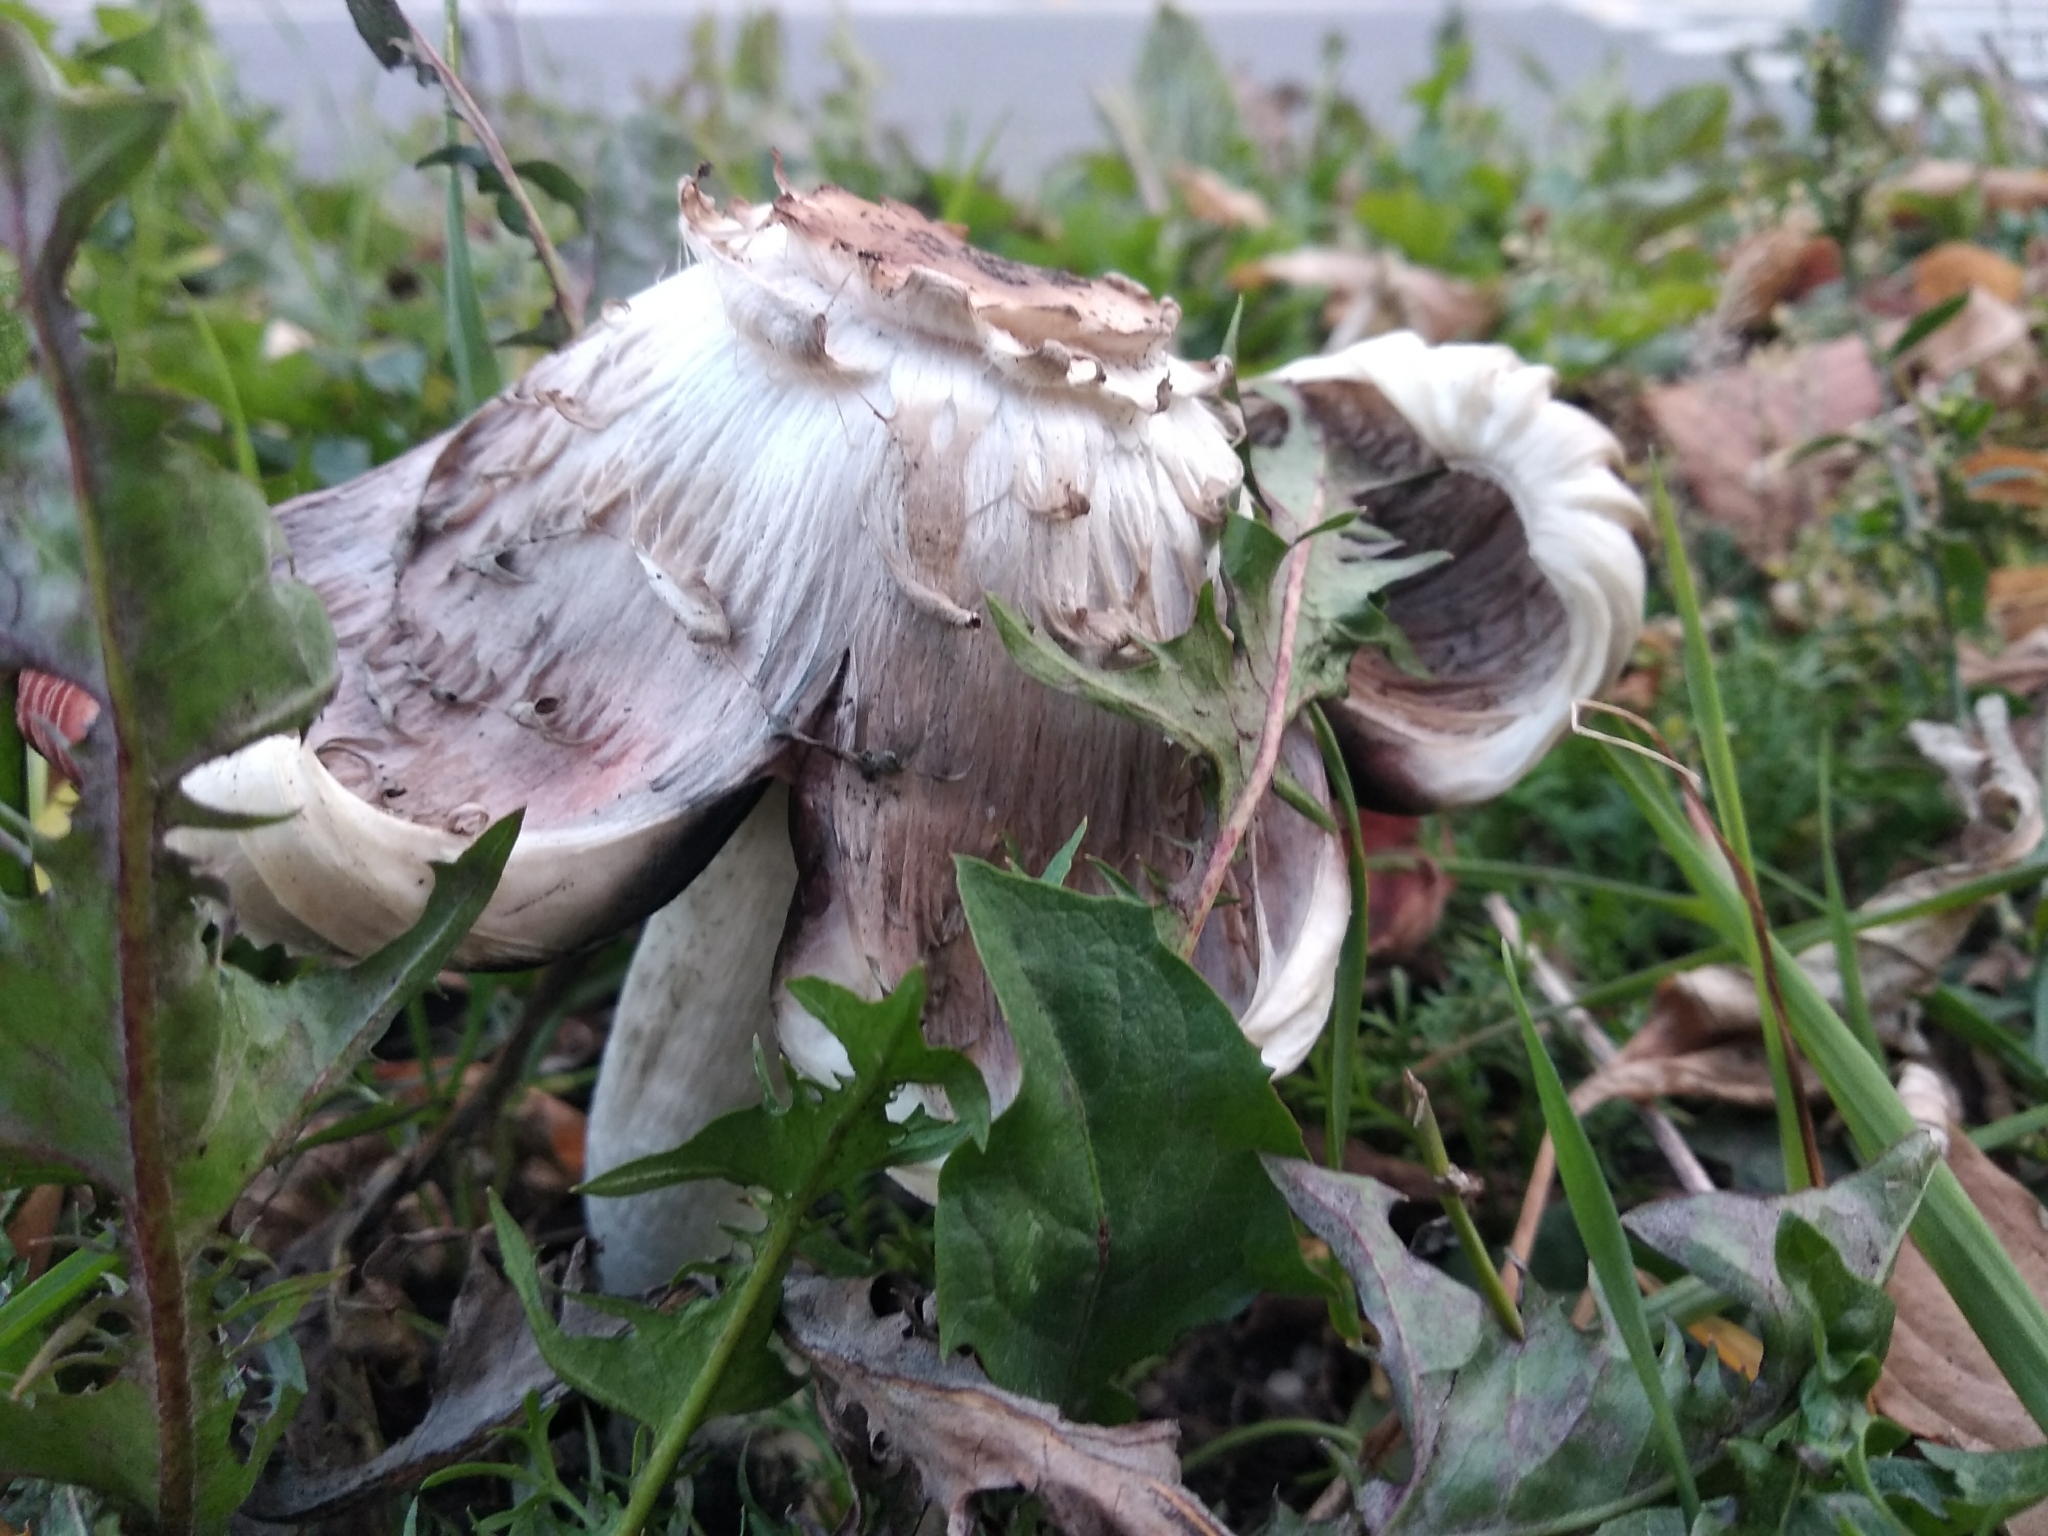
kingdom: Fungi
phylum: Basidiomycota
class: Agaricomycetes
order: Agaricales
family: Agaricaceae
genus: Coprinus
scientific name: Coprinus comatus
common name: Lawyer's wig
